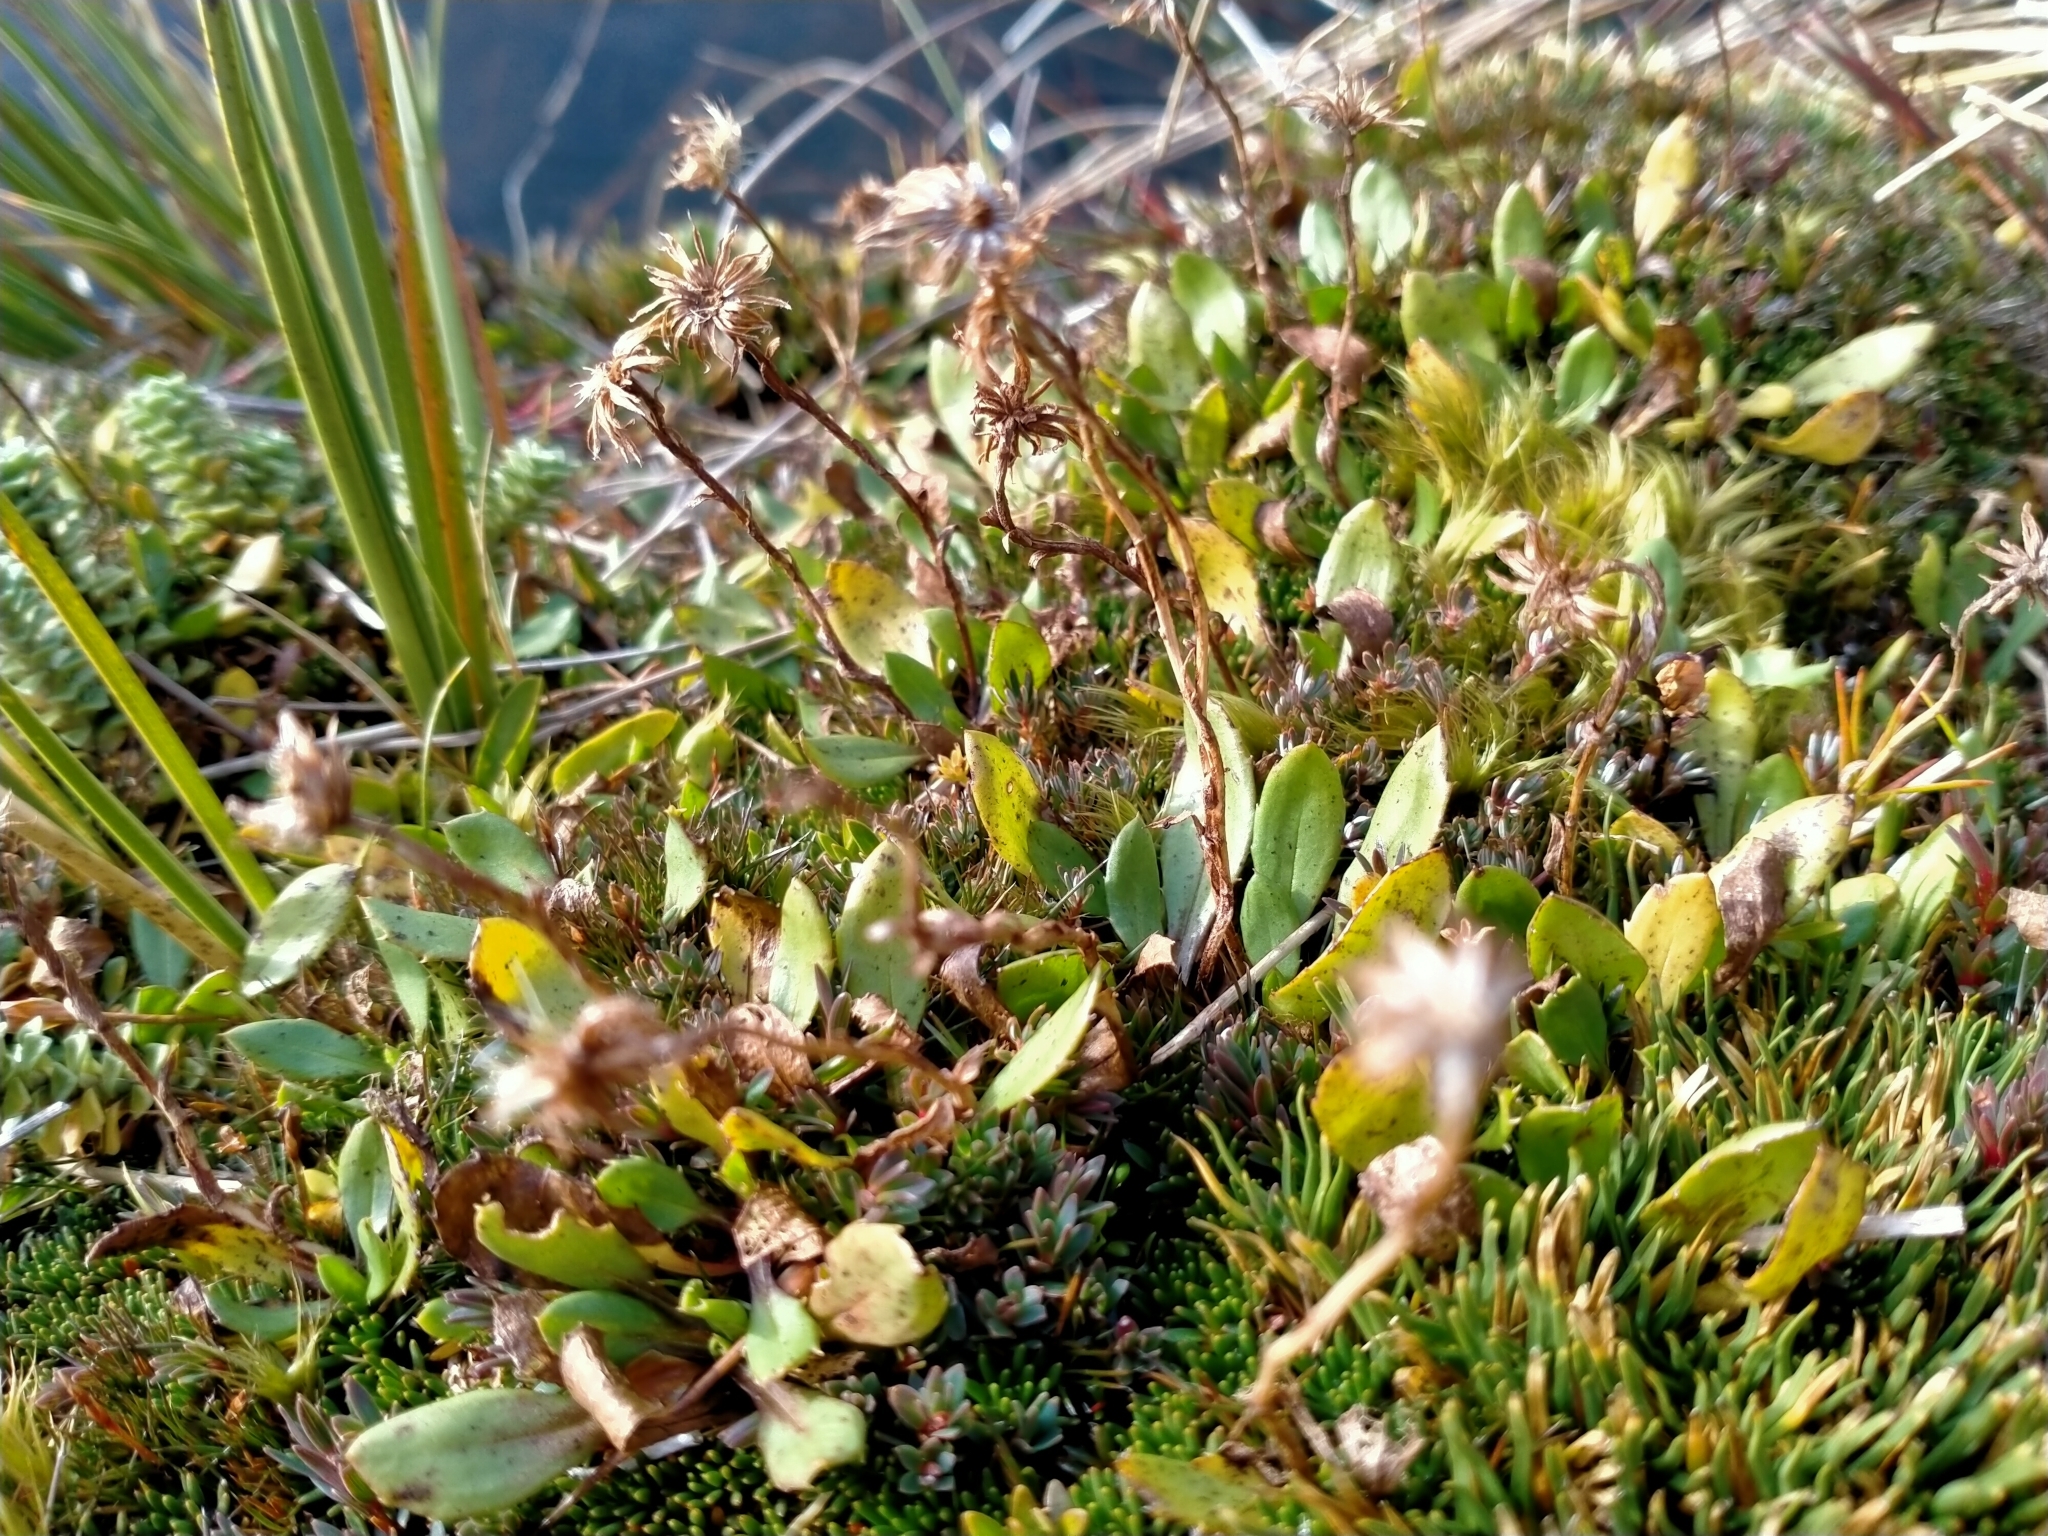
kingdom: Plantae
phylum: Tracheophyta
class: Magnoliopsida
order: Asterales
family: Asteraceae
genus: Celmisia
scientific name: Celmisia glandulosa
